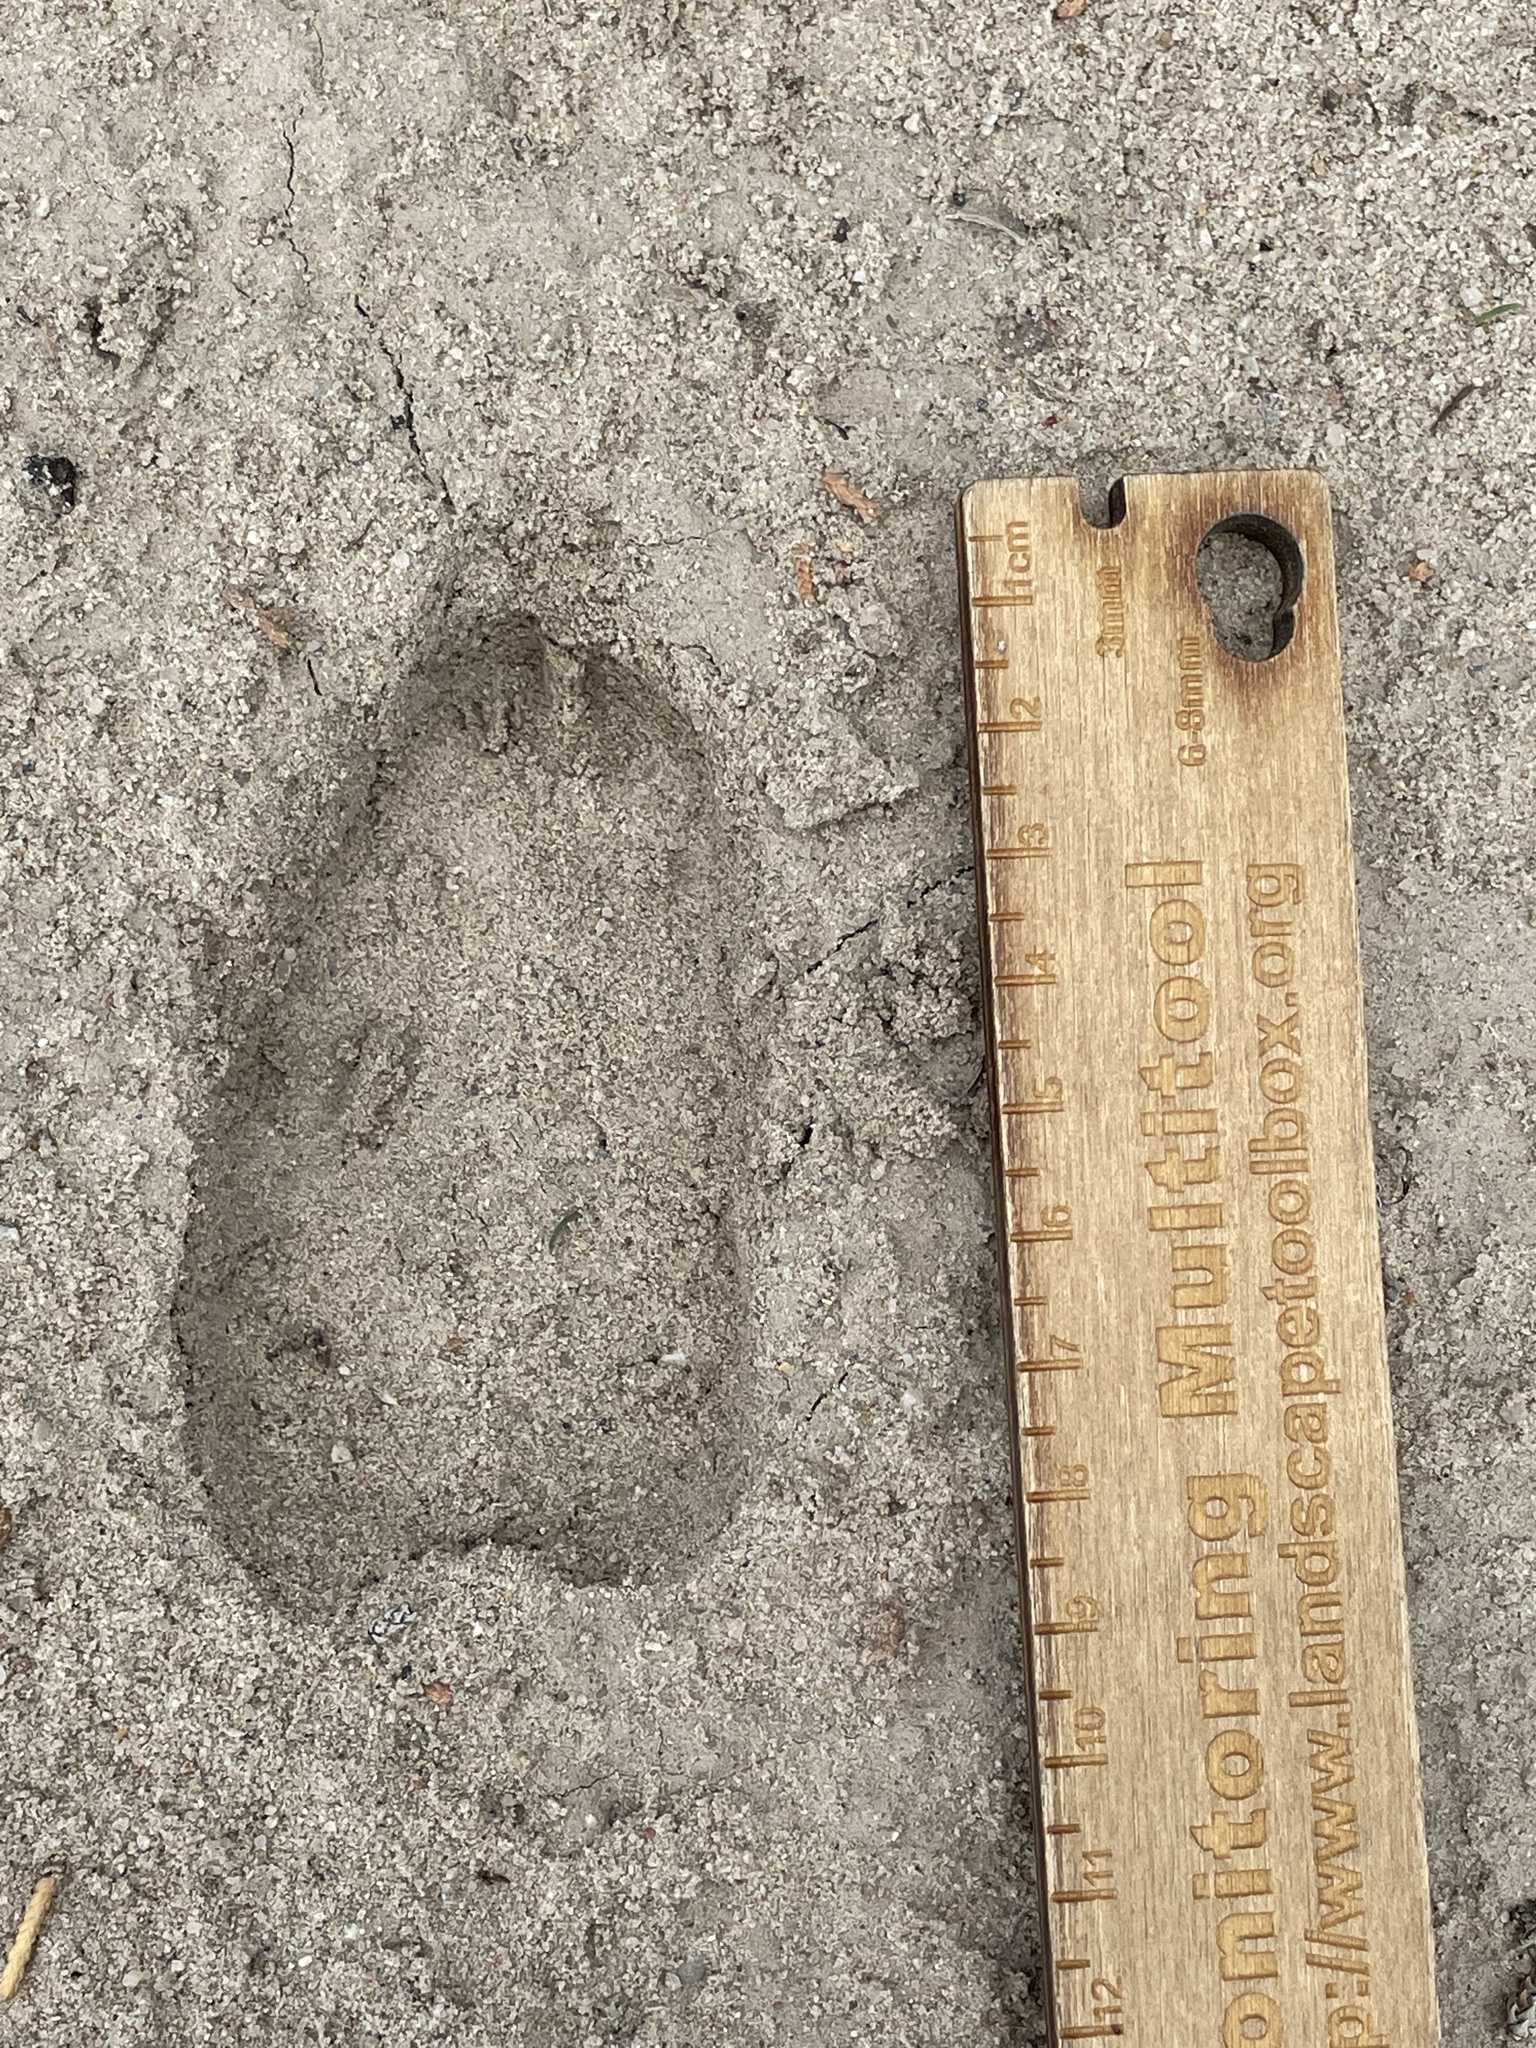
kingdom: Animalia
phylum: Chordata
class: Mammalia
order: Artiodactyla
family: Cervidae
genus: Odocoileus
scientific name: Odocoileus hemionus
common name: Mule deer
